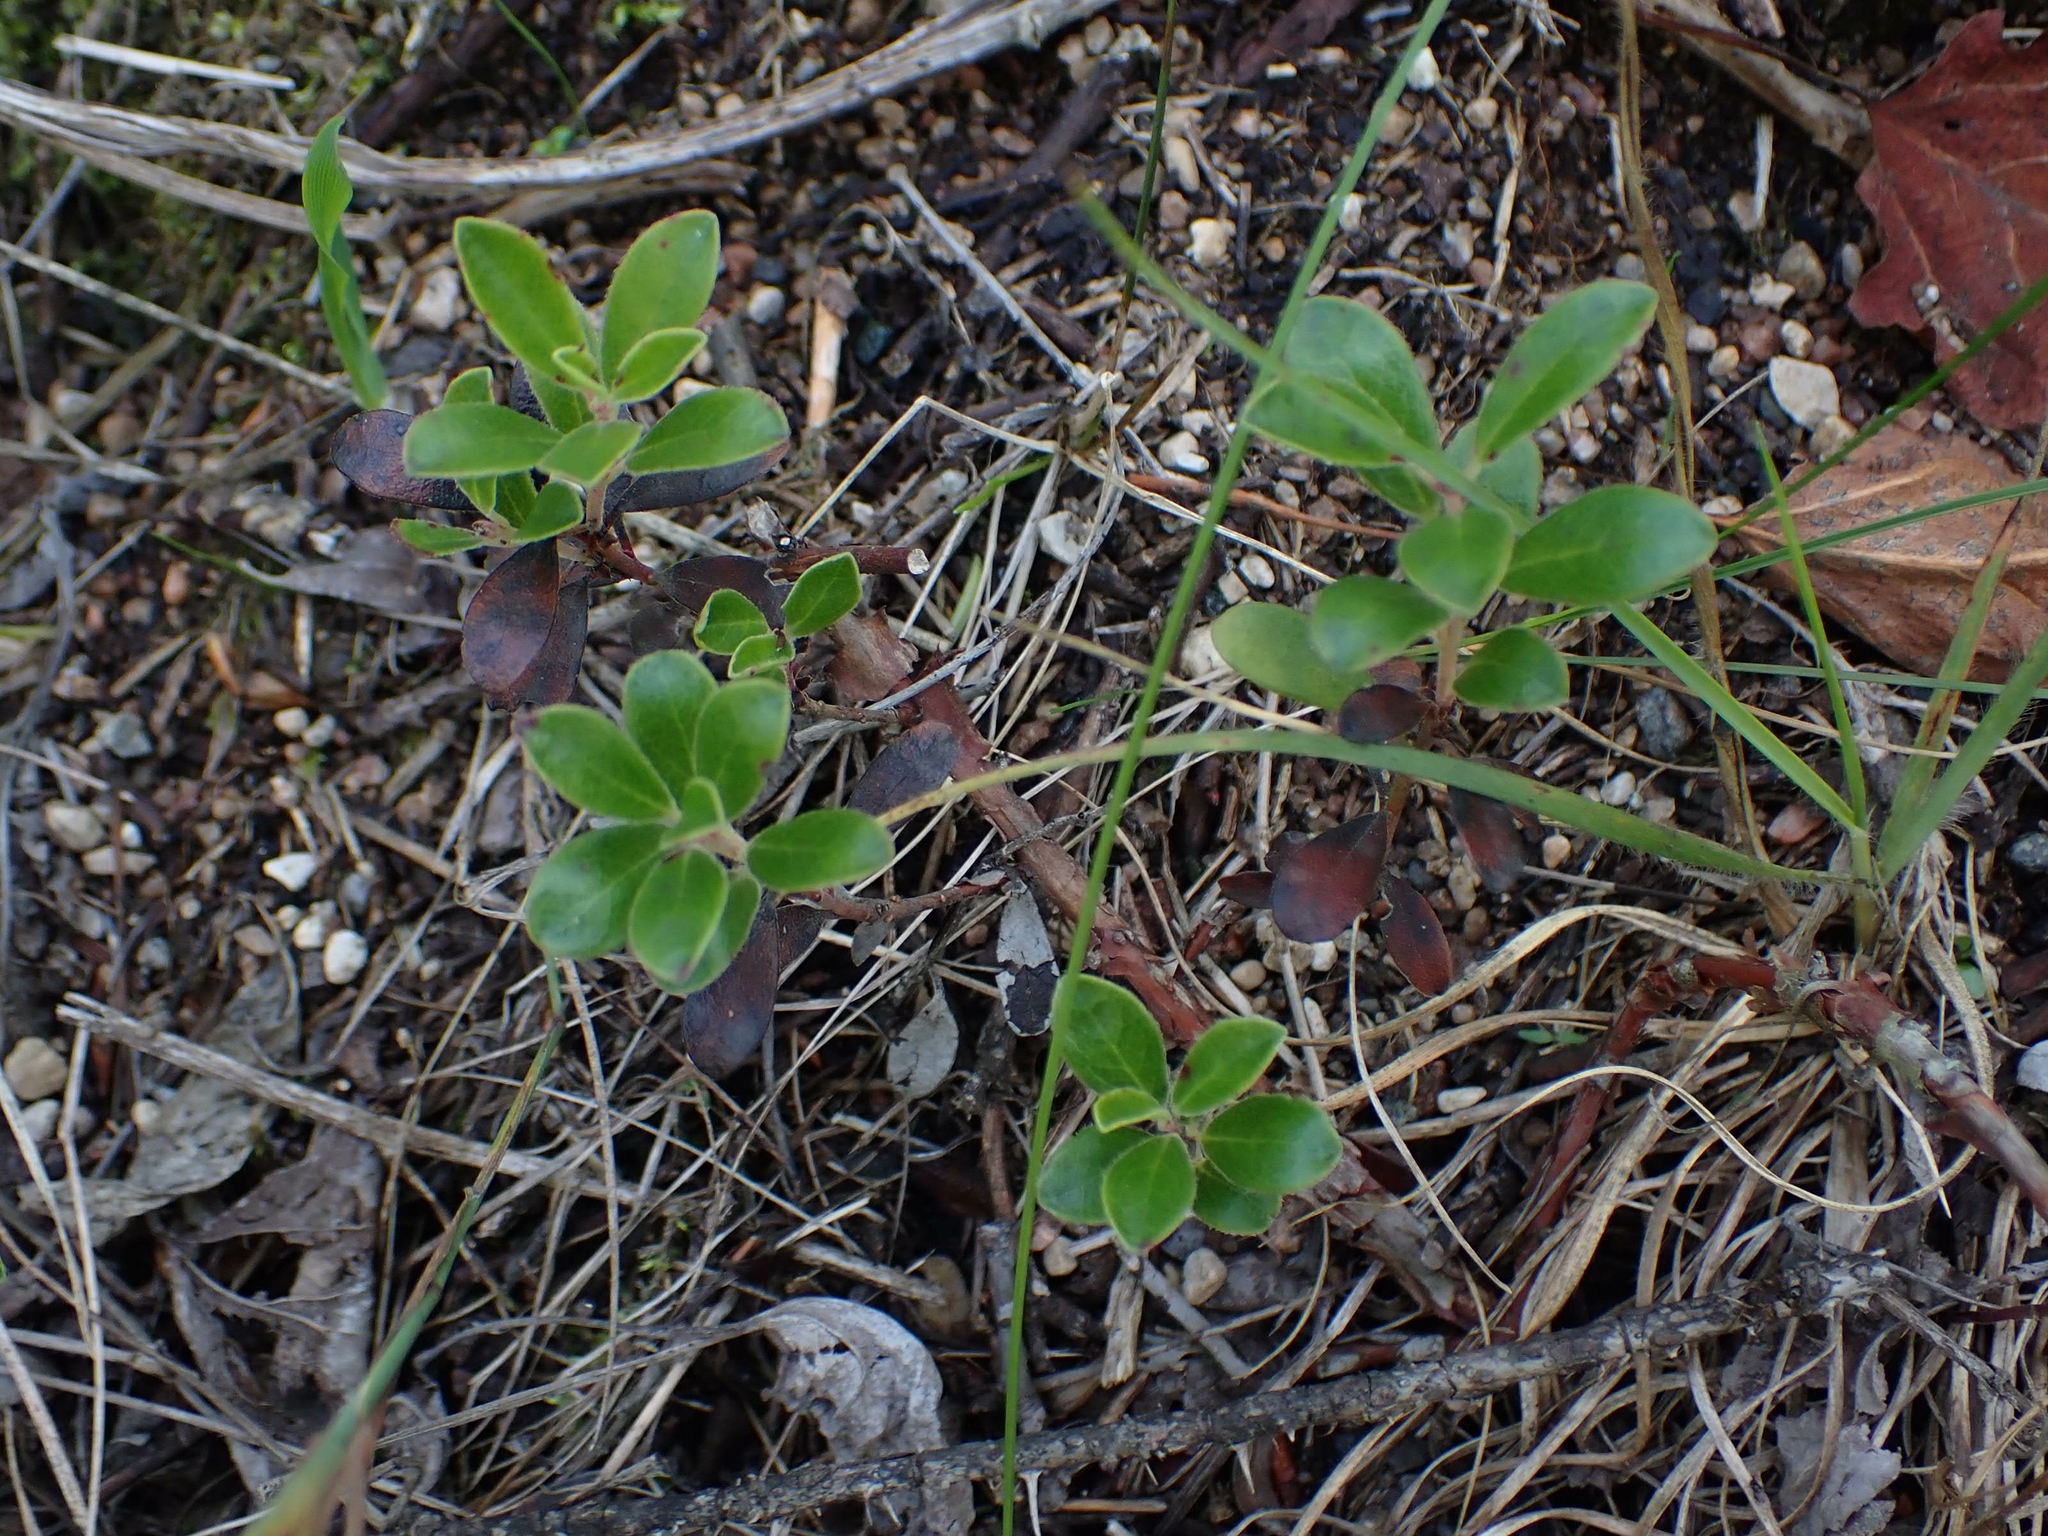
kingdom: Plantae
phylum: Tracheophyta
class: Magnoliopsida
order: Ericales
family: Ericaceae
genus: Arctostaphylos
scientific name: Arctostaphylos uva-ursi
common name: Bearberry
